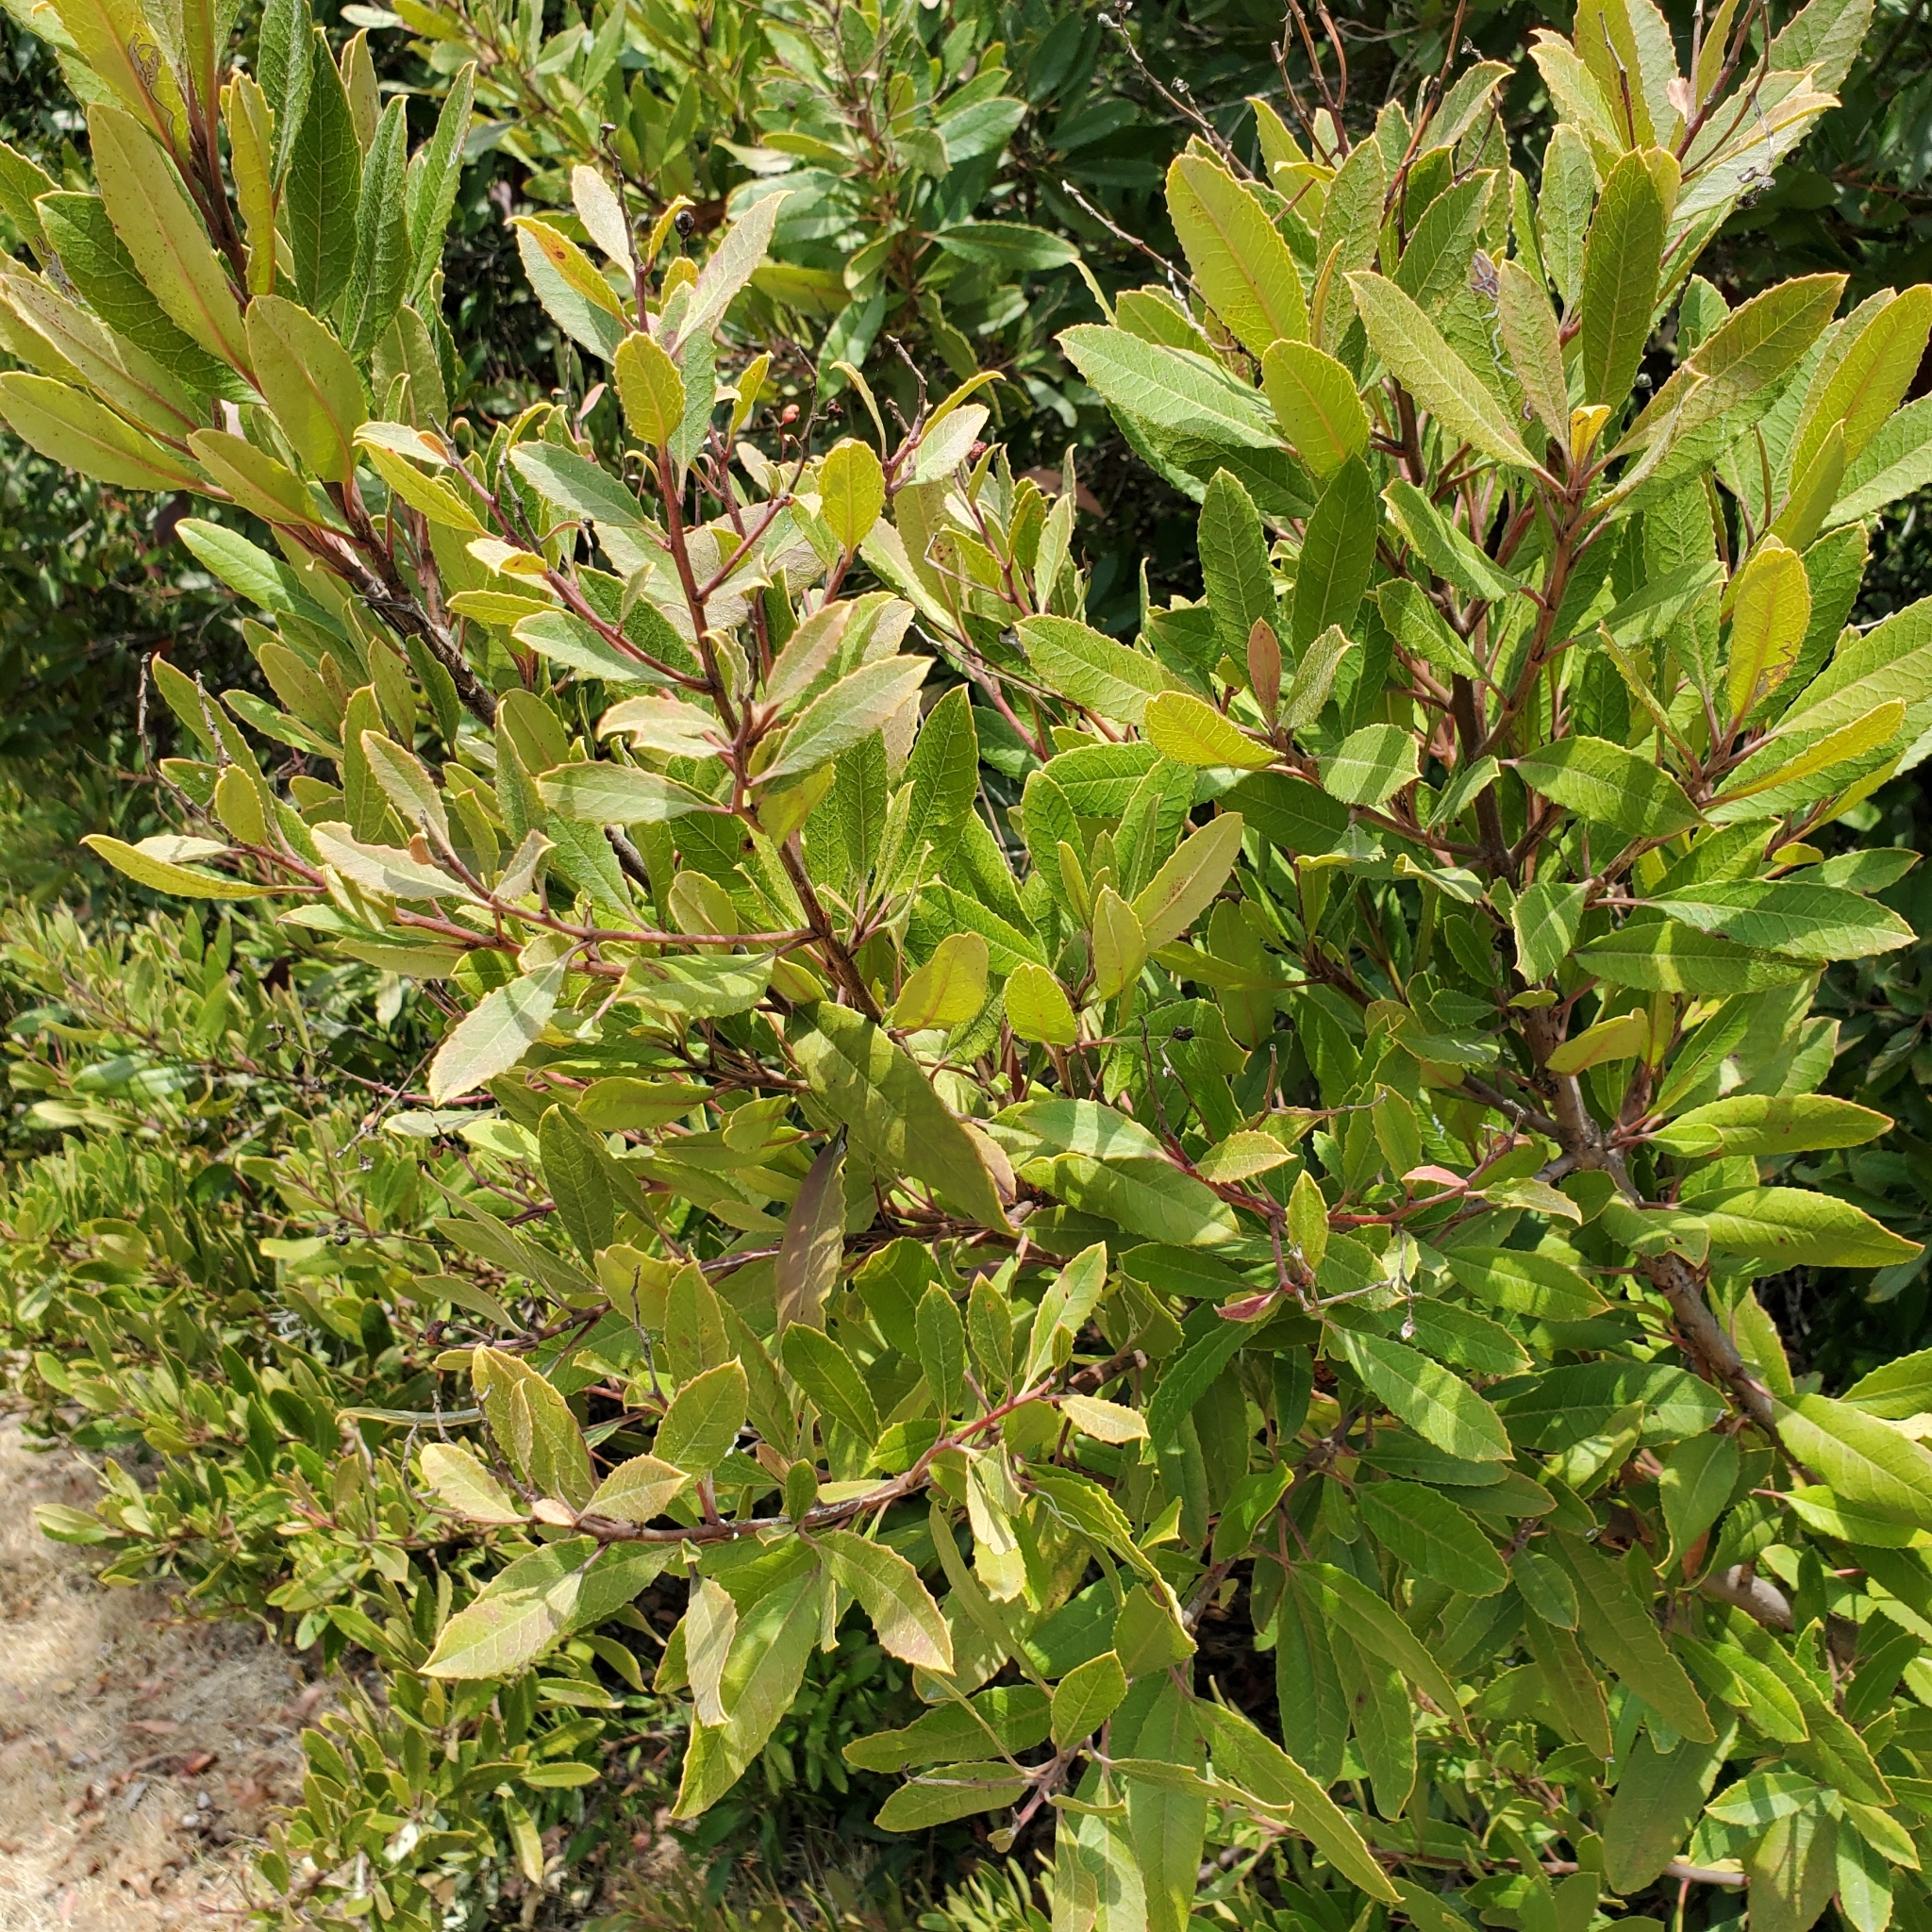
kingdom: Plantae
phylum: Tracheophyta
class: Magnoliopsida
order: Rosales
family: Rosaceae
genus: Heteromeles
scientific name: Heteromeles arbutifolia
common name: California-holly
